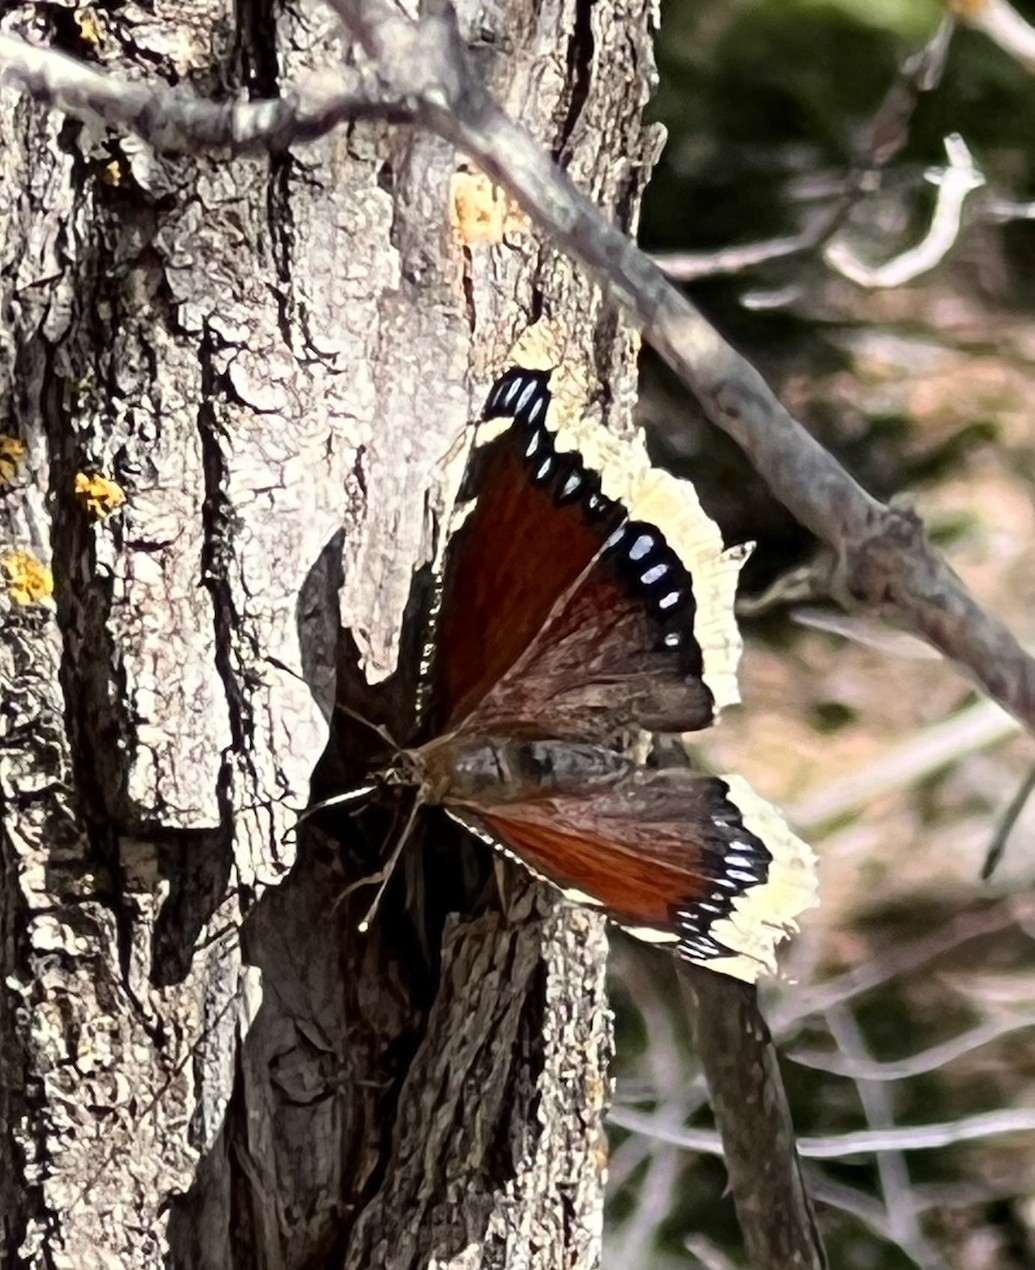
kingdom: Animalia
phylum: Arthropoda
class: Insecta
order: Lepidoptera
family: Nymphalidae
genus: Nymphalis
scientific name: Nymphalis antiopa
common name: Camberwell beauty
